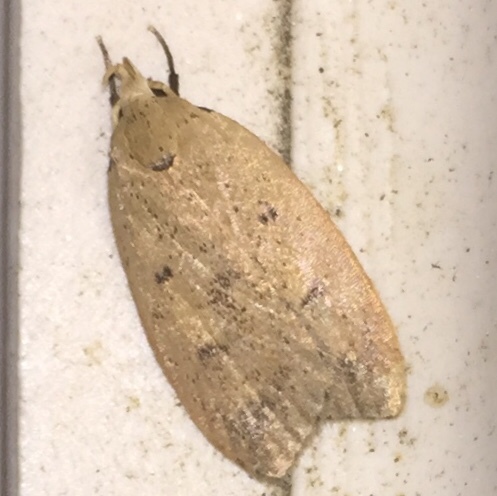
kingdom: Animalia
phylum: Arthropoda
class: Insecta
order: Lepidoptera
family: Peleopodidae
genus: Machimia
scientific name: Machimia tentoriferella
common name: Gold-striped leaftier moth
